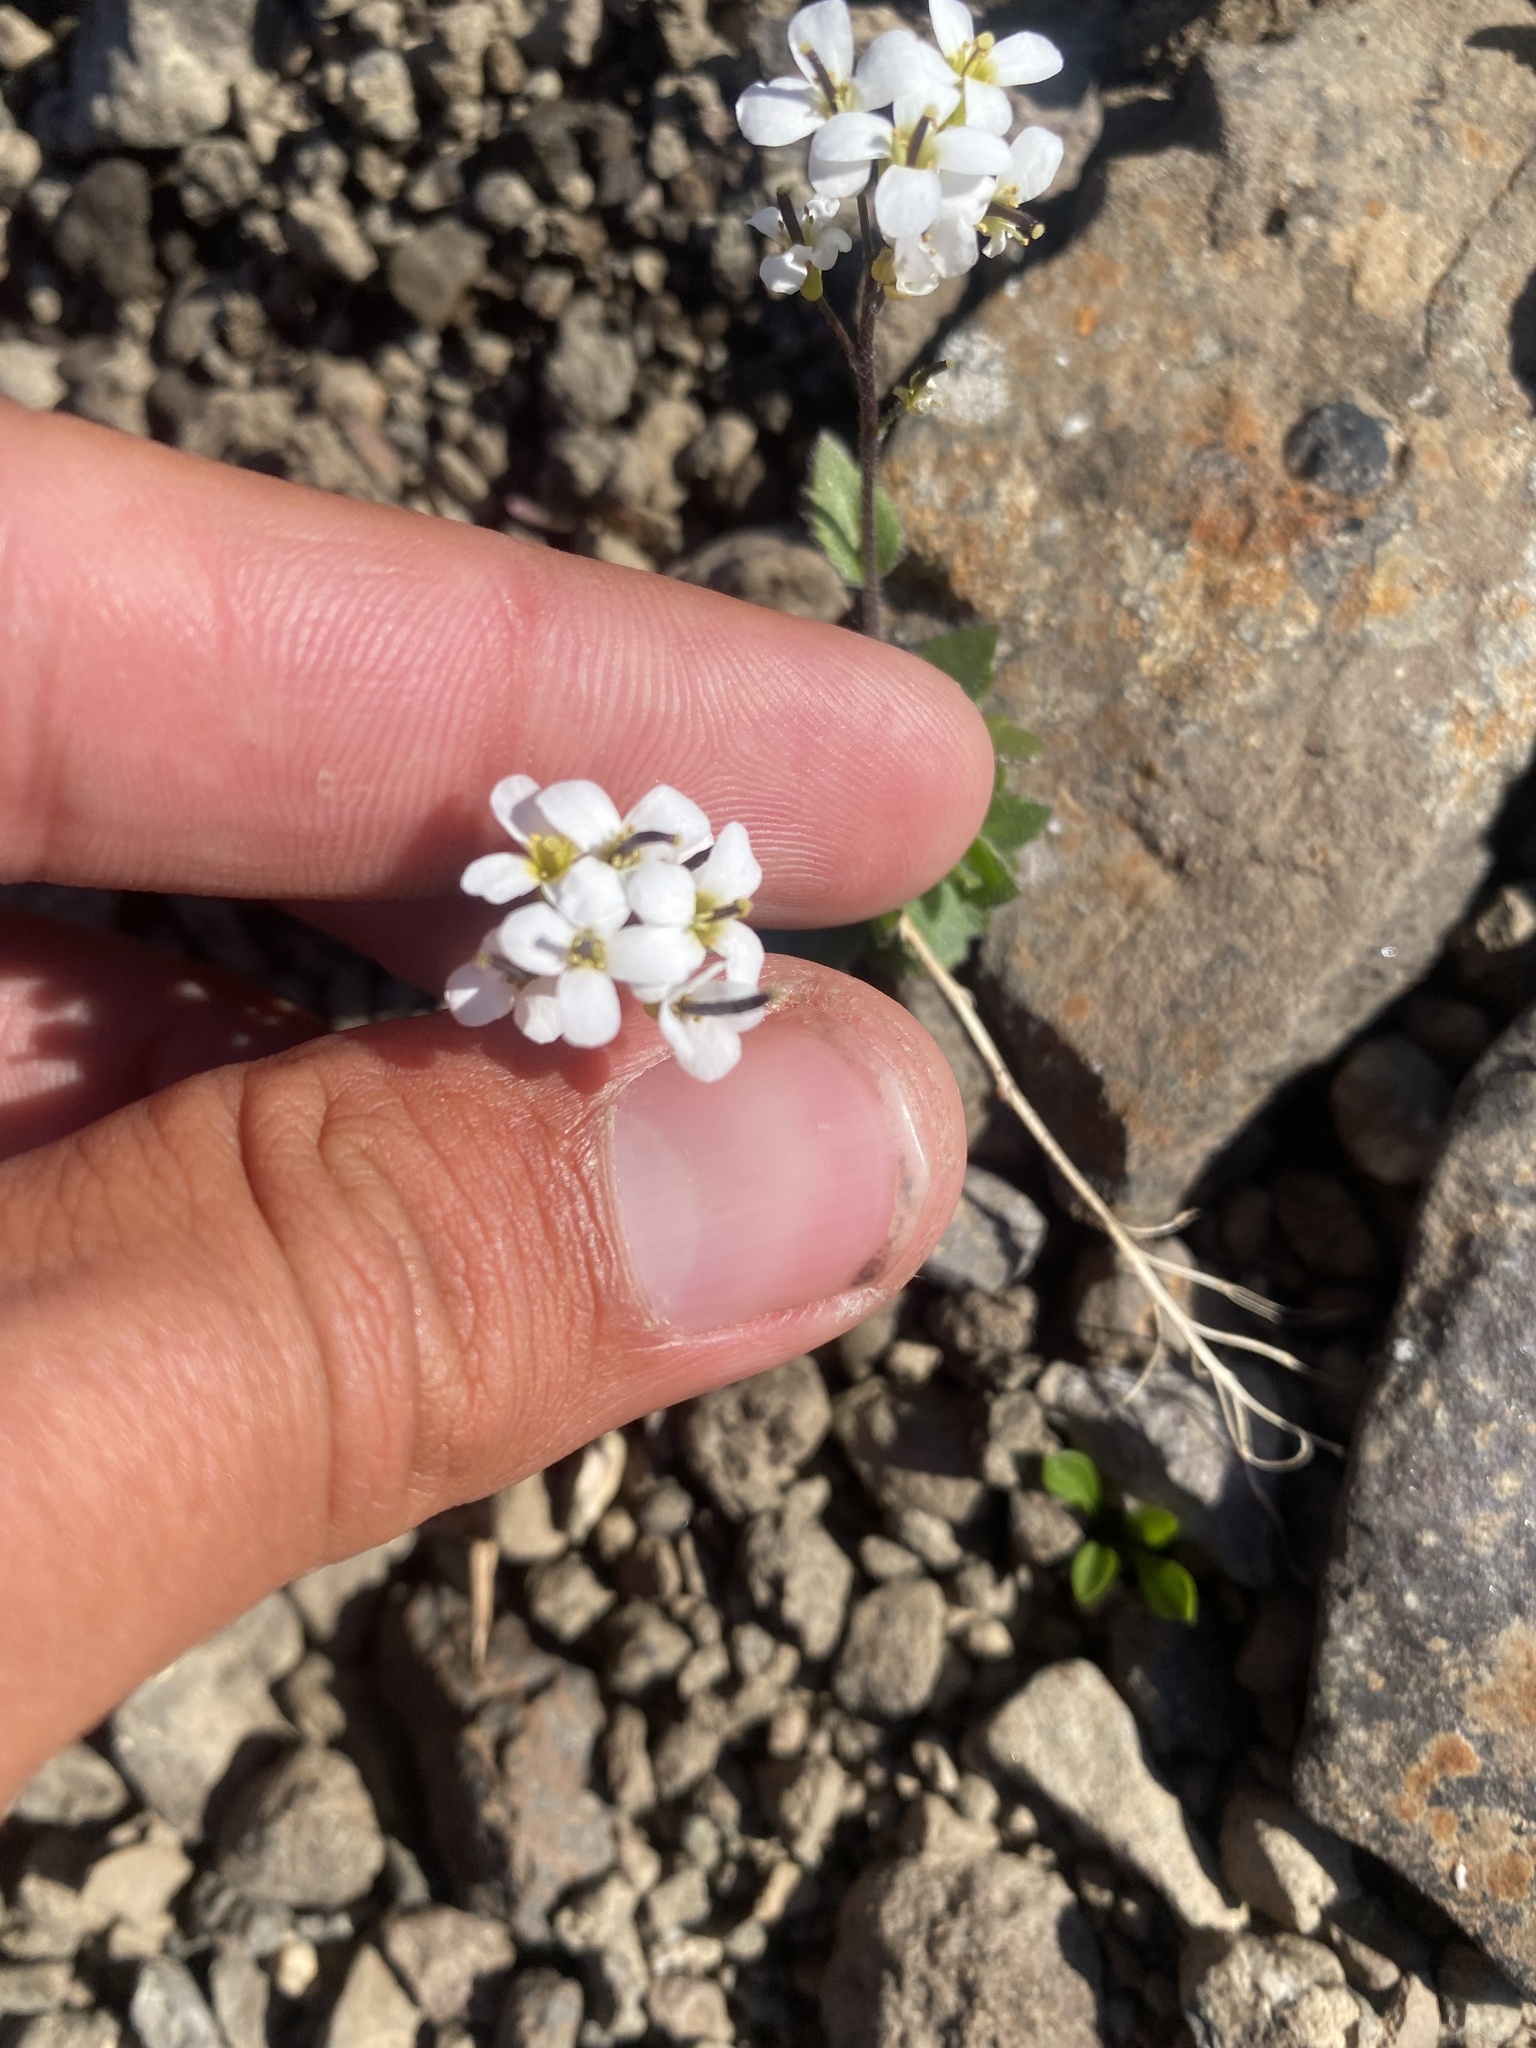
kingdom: Plantae
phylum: Tracheophyta
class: Magnoliopsida
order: Brassicales
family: Brassicaceae
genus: Arabidopsis
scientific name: Arabidopsis lyrata
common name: Lyrate rockcress
